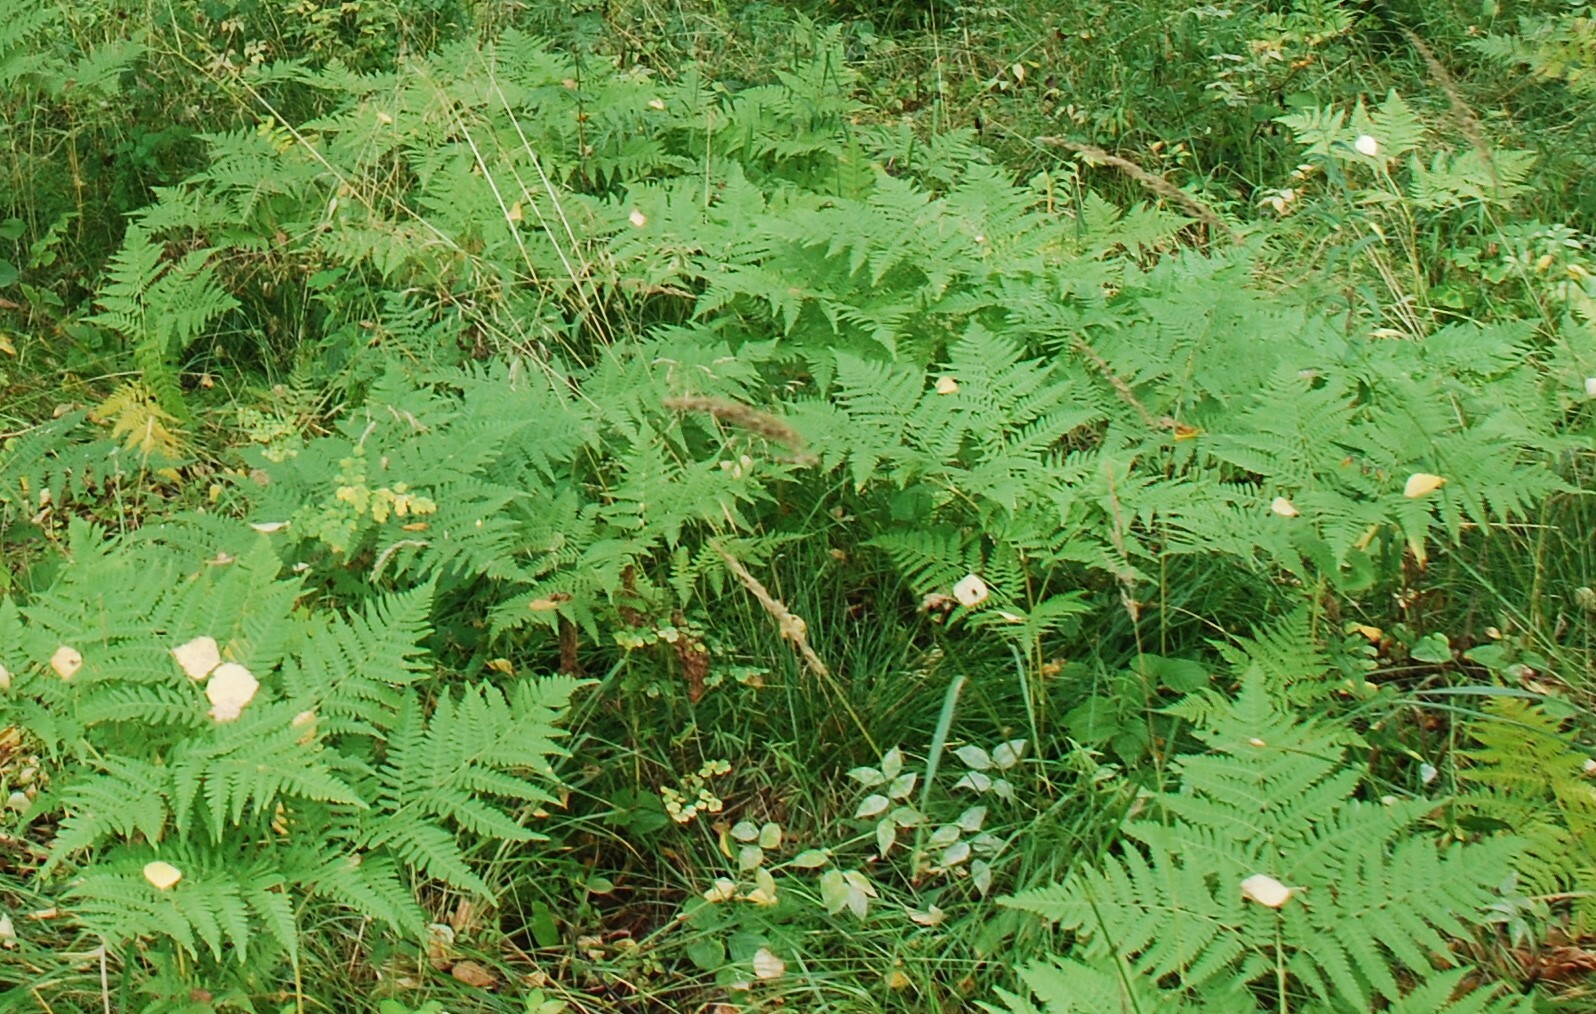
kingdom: Plantae
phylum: Tracheophyta
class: Polypodiopsida
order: Polypodiales
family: Dennstaedtiaceae
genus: Pteridium
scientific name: Pteridium aquilinum
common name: Bracken
